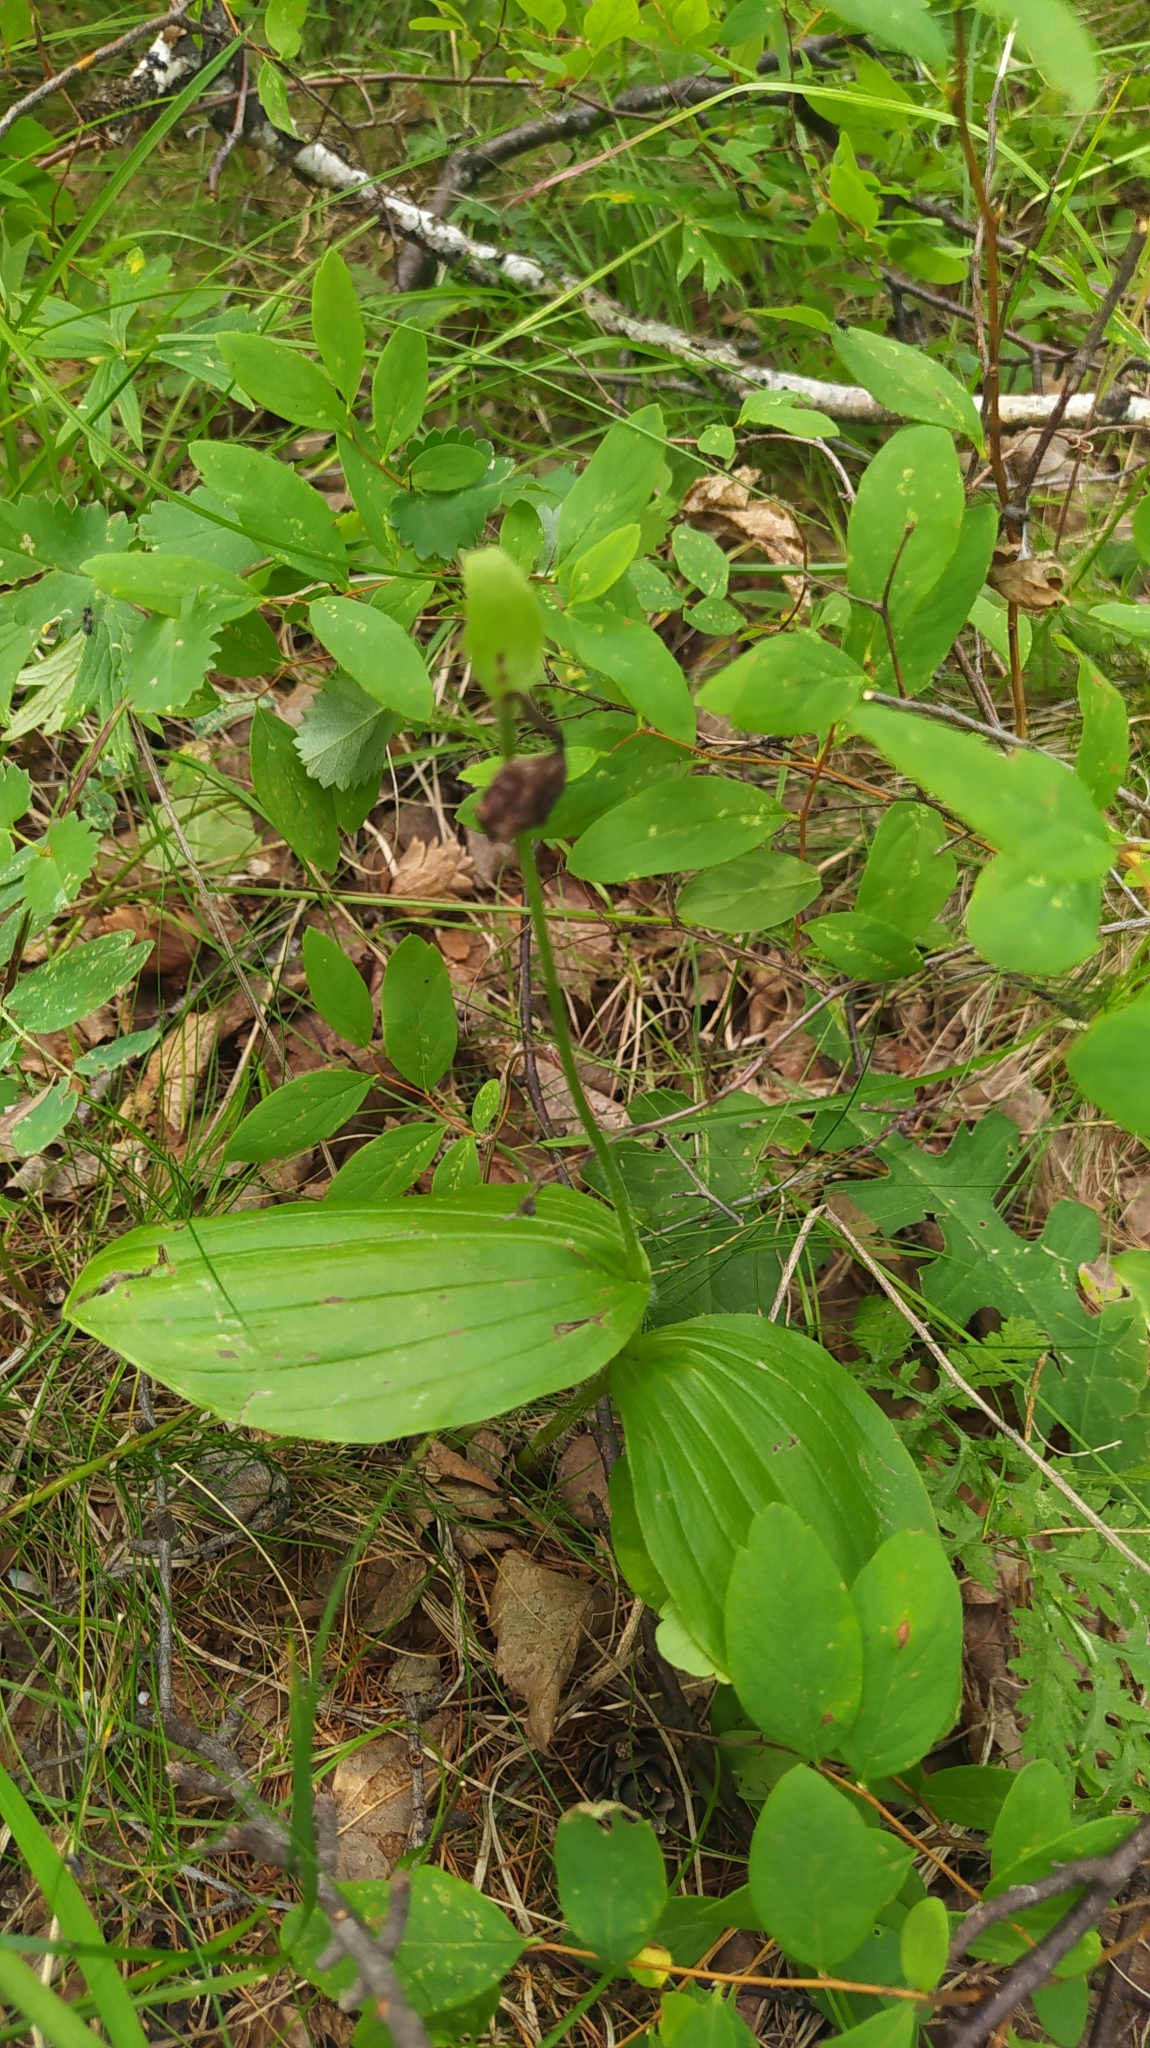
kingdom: Plantae
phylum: Tracheophyta
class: Liliopsida
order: Asparagales
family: Orchidaceae
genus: Cypripedium
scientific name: Cypripedium guttatum
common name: Pink lady slipper
